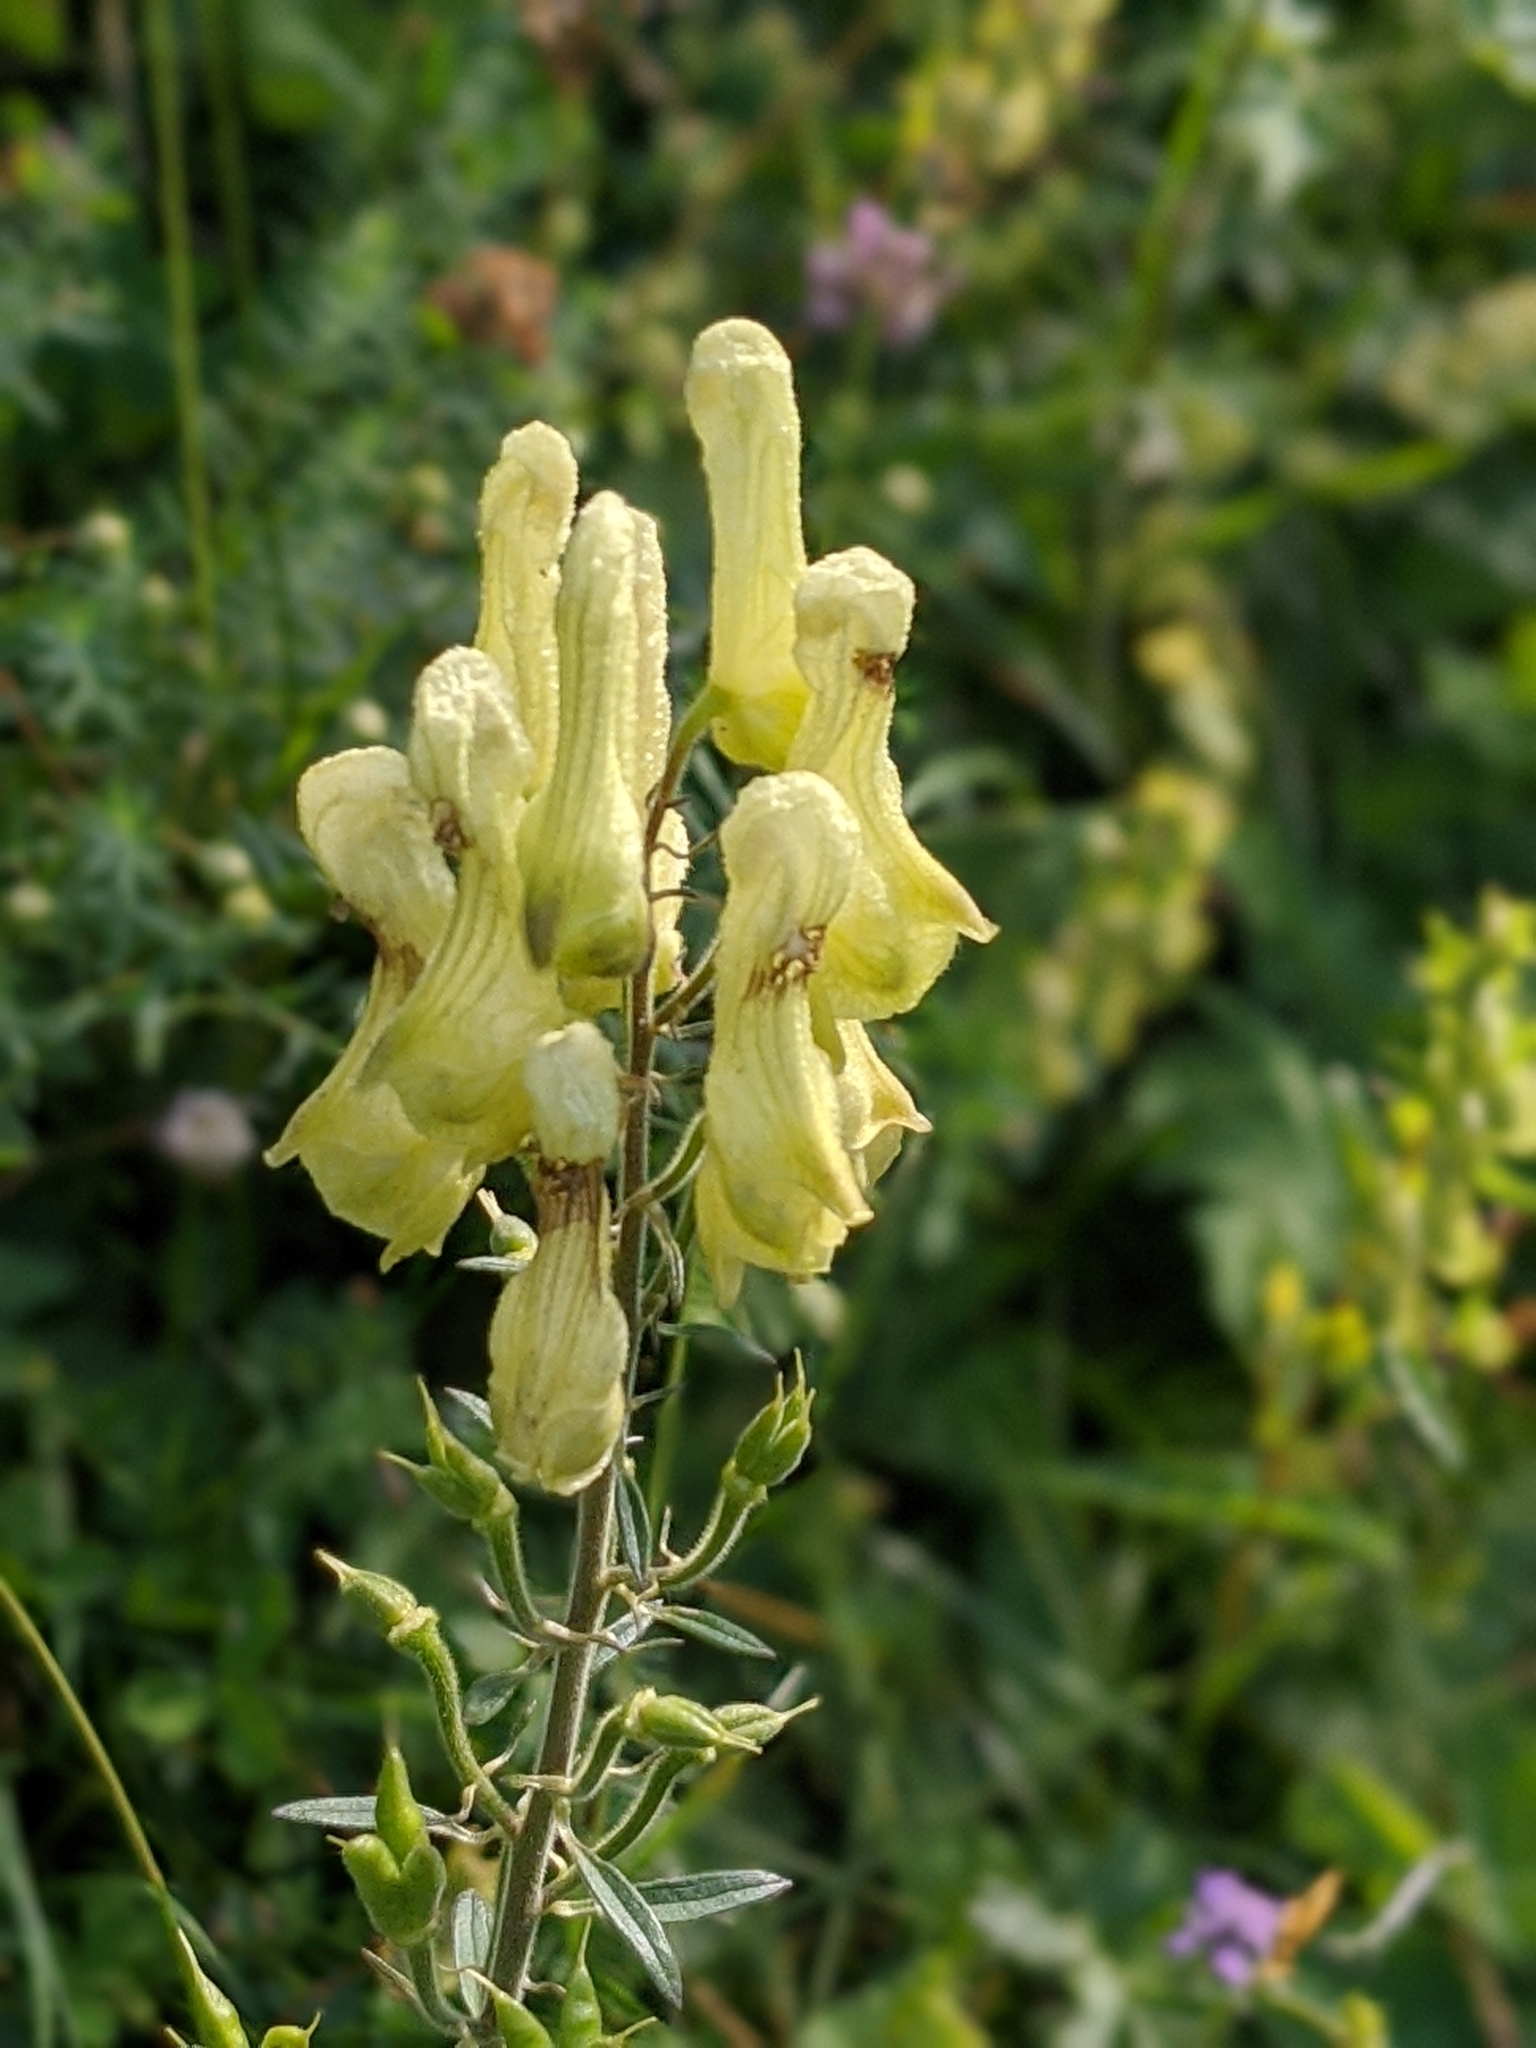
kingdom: Plantae
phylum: Tracheophyta
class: Magnoliopsida
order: Ranunculales
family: Ranunculaceae
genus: Aconitum
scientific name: Aconitum lycoctonum
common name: Wolf's-bane
